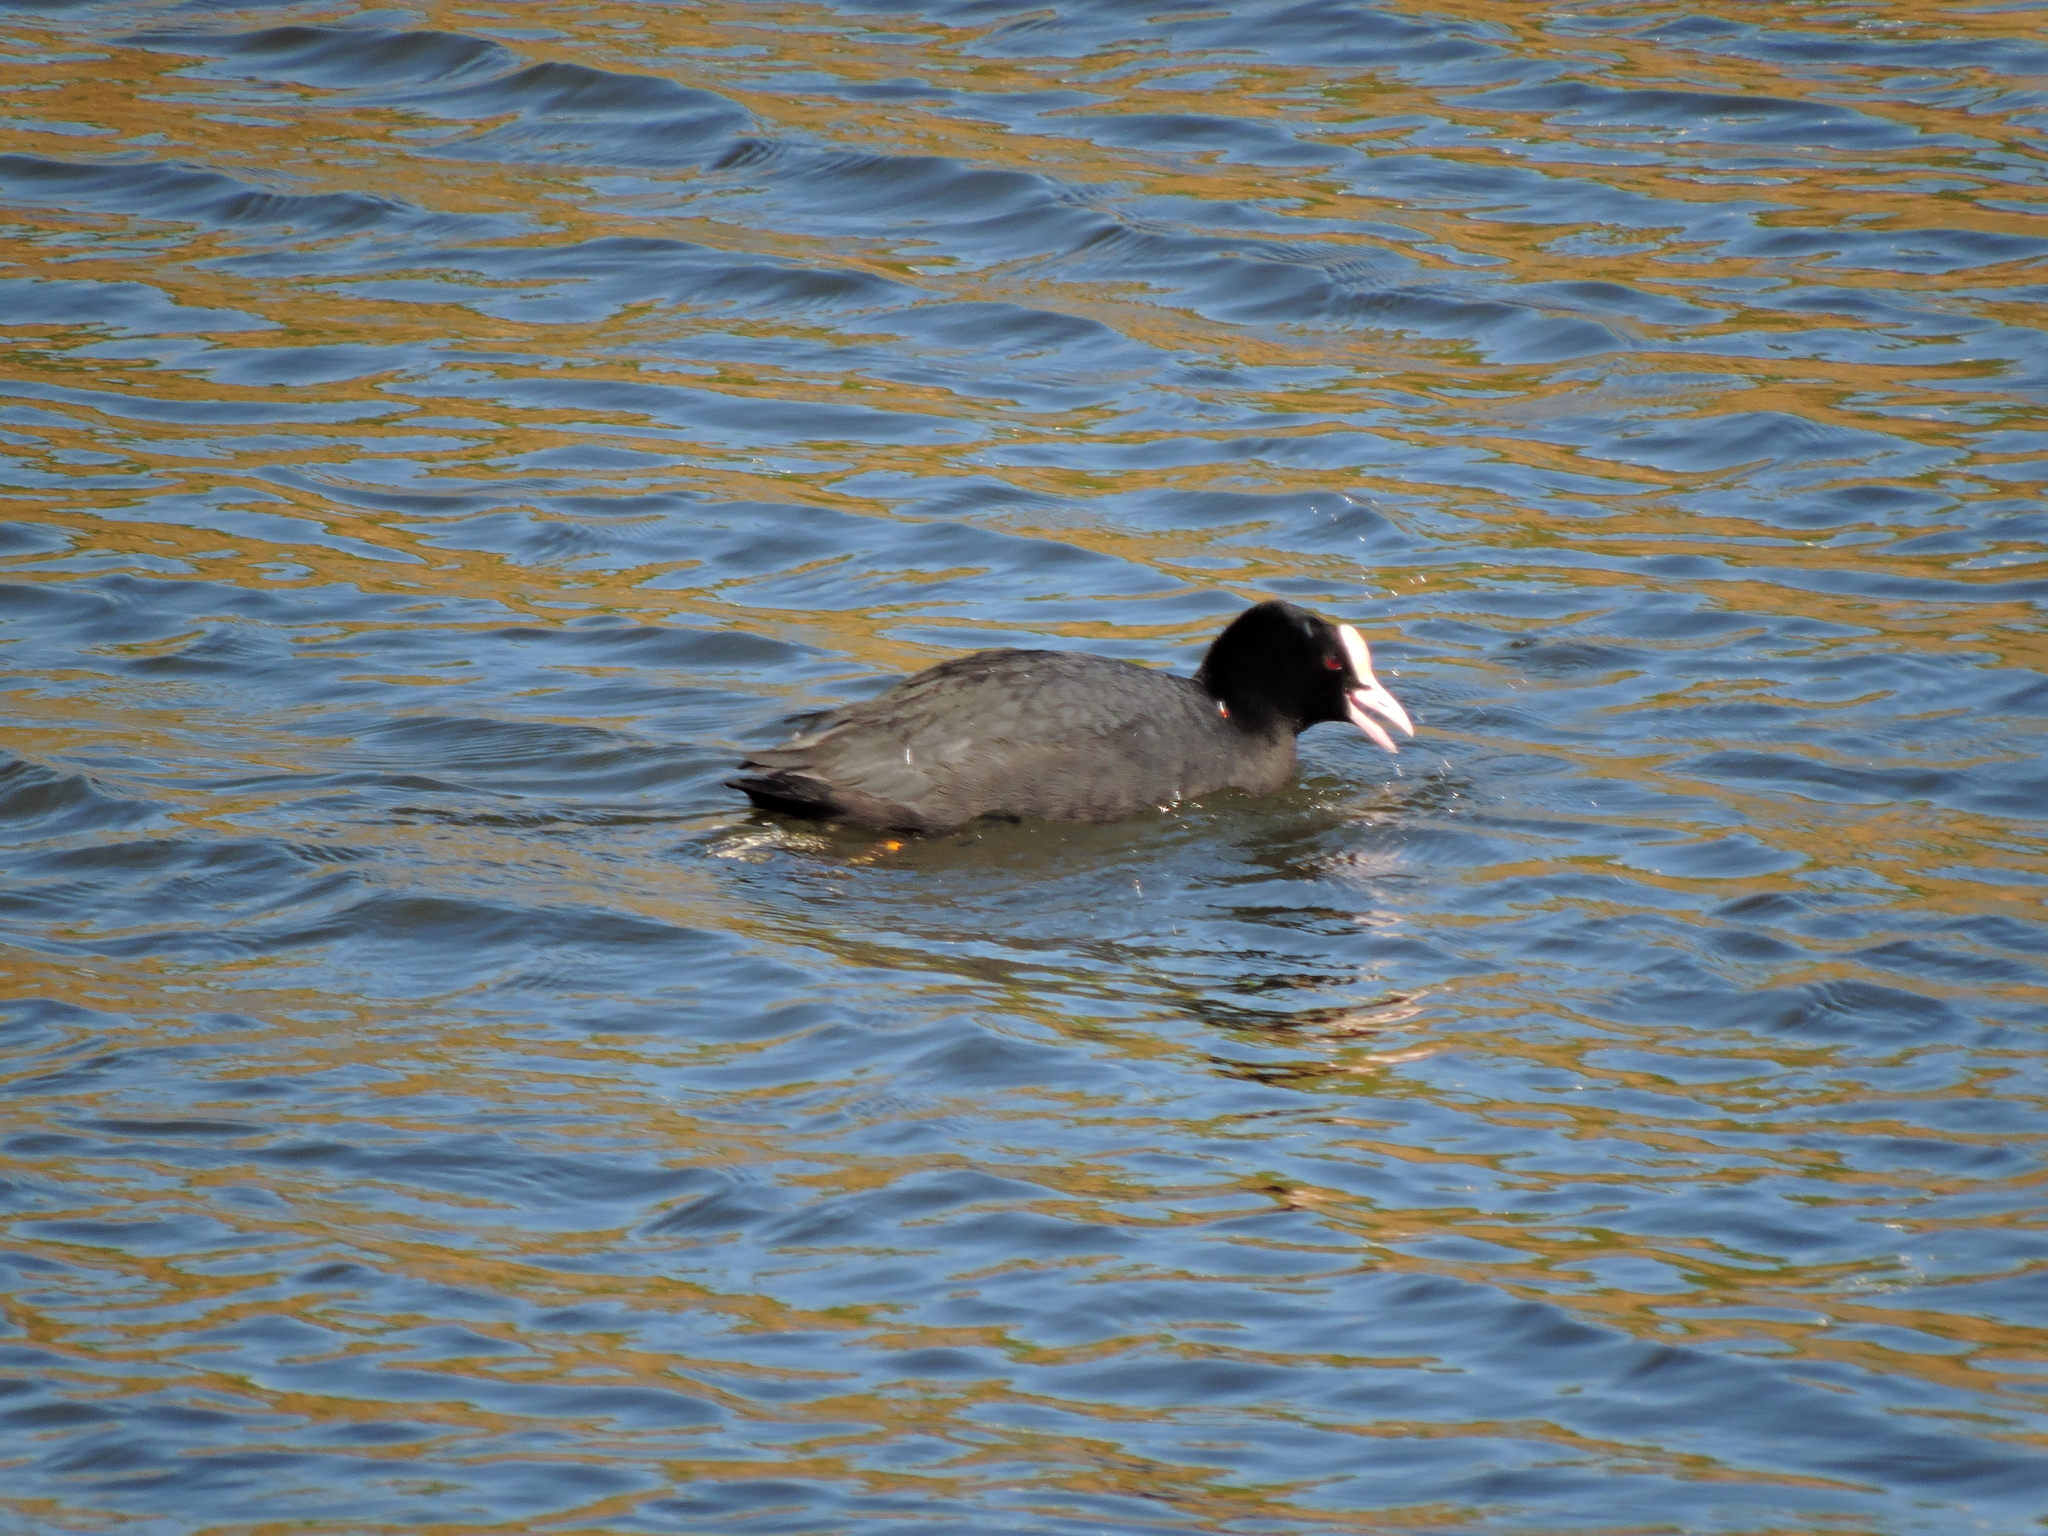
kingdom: Animalia
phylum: Chordata
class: Aves
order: Gruiformes
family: Rallidae
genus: Fulica
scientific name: Fulica atra
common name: Eurasian coot
